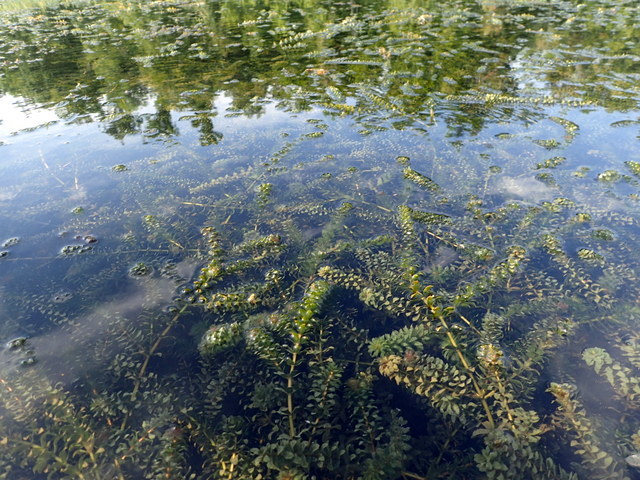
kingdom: Plantae
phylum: Tracheophyta
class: Liliopsida
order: Alismatales
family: Hydrocharitaceae
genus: Hydrilla
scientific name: Hydrilla verticillata
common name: Florida-elodea
